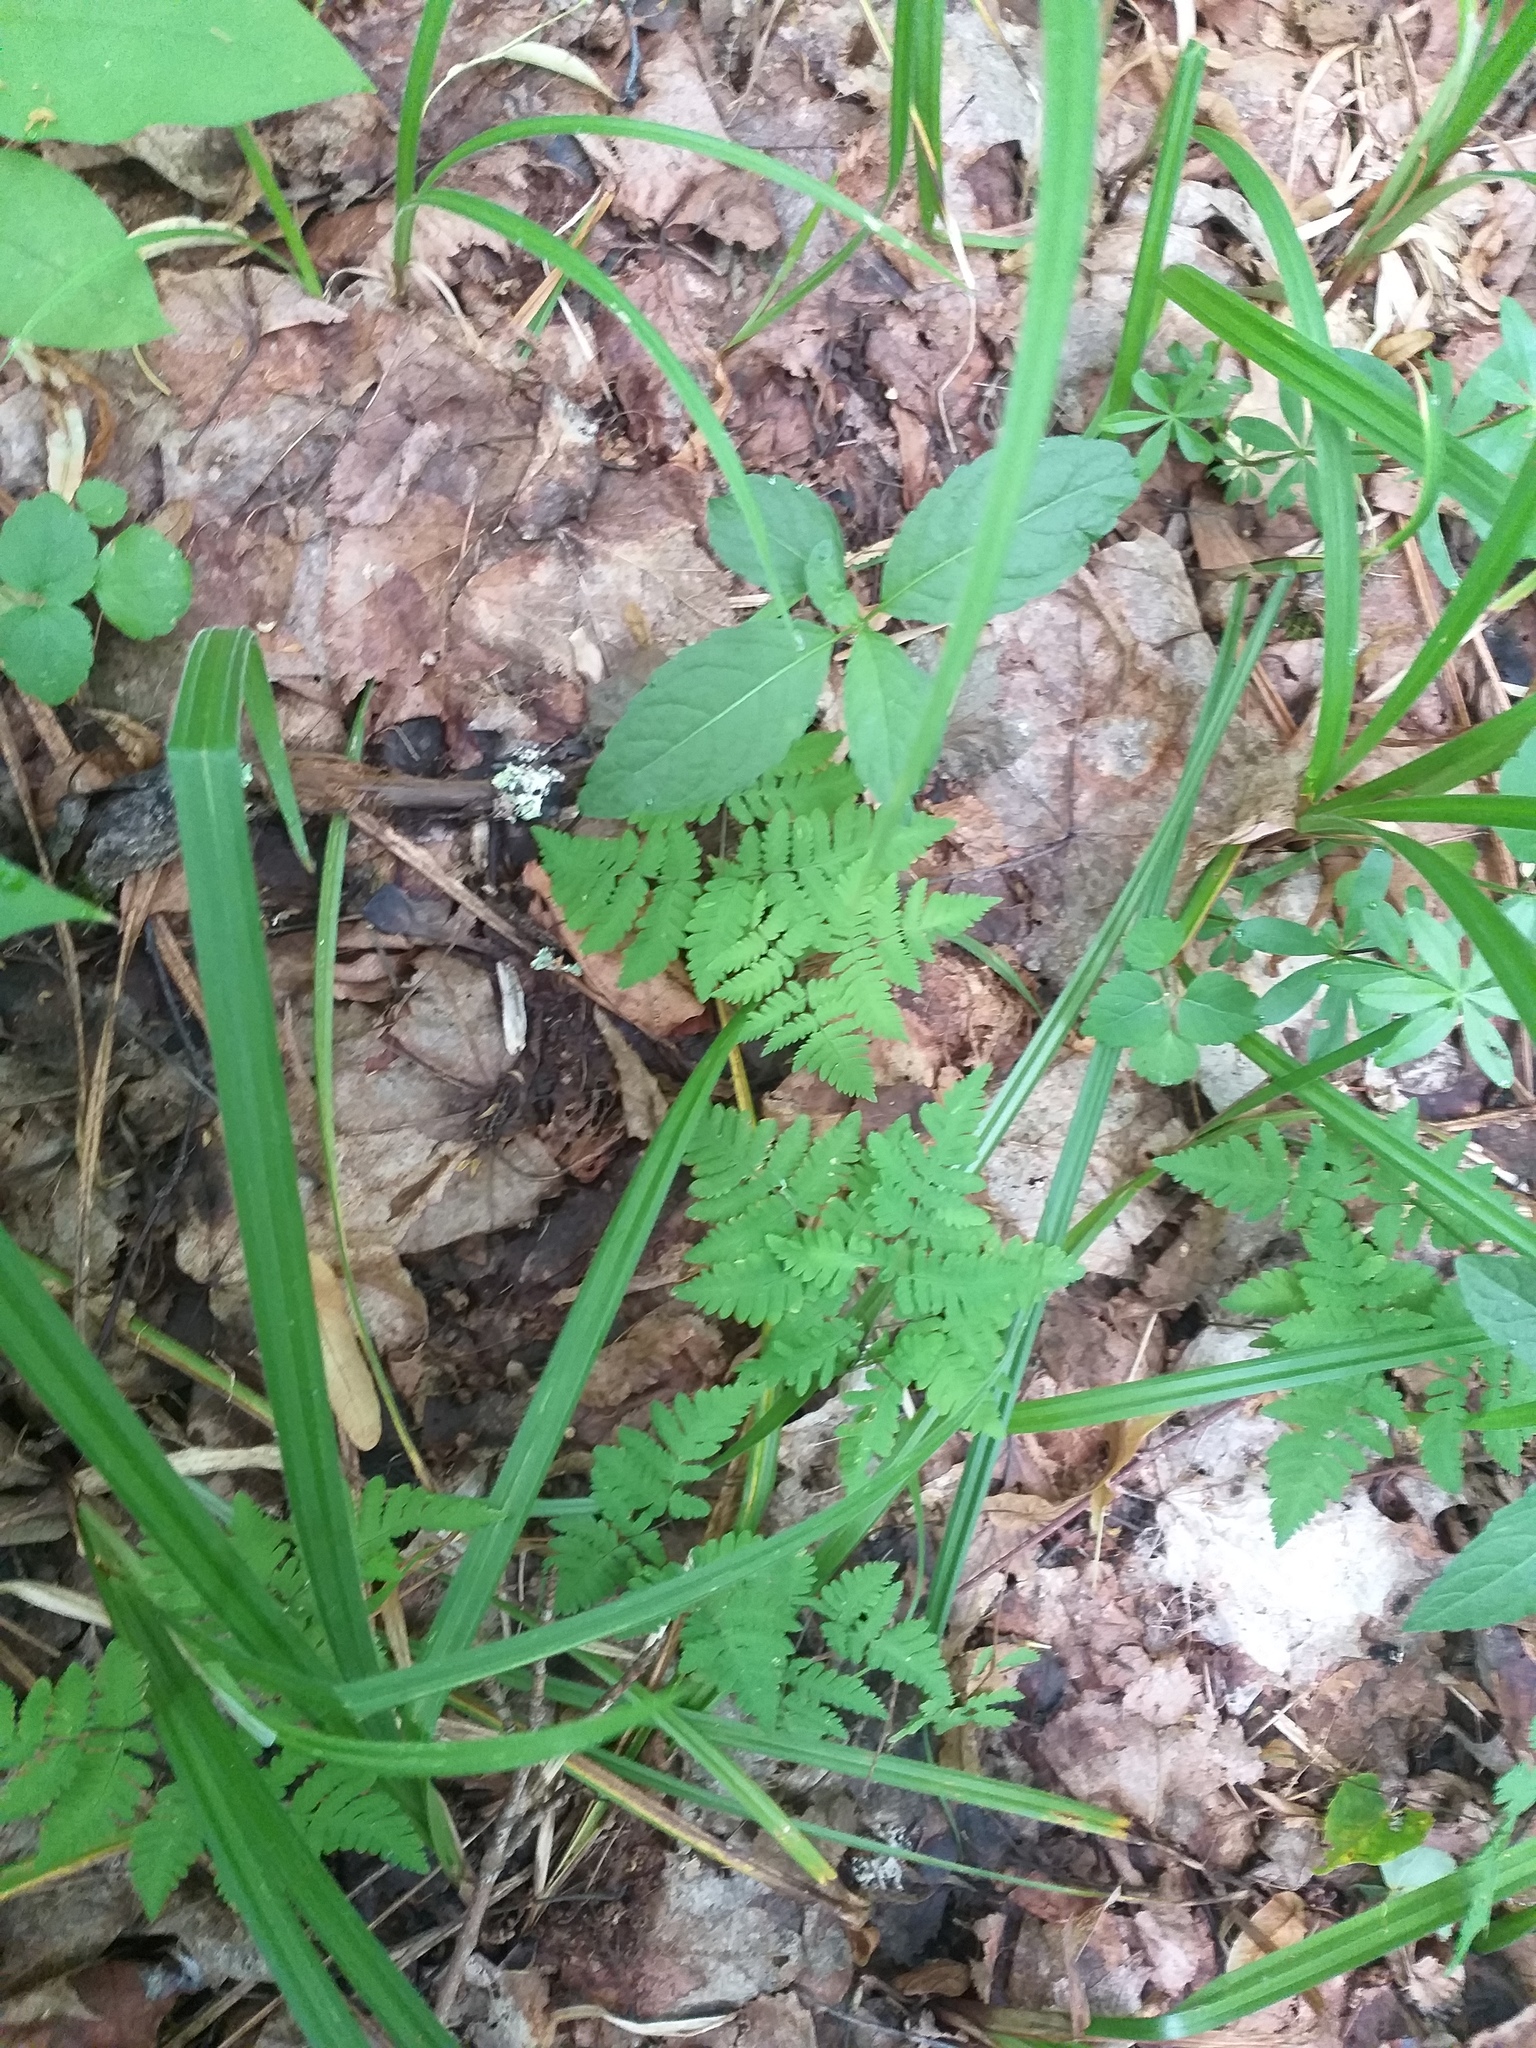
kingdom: Plantae
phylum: Tracheophyta
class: Polypodiopsida
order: Polypodiales
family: Cystopteridaceae
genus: Gymnocarpium
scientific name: Gymnocarpium dryopteris
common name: Oak fern
